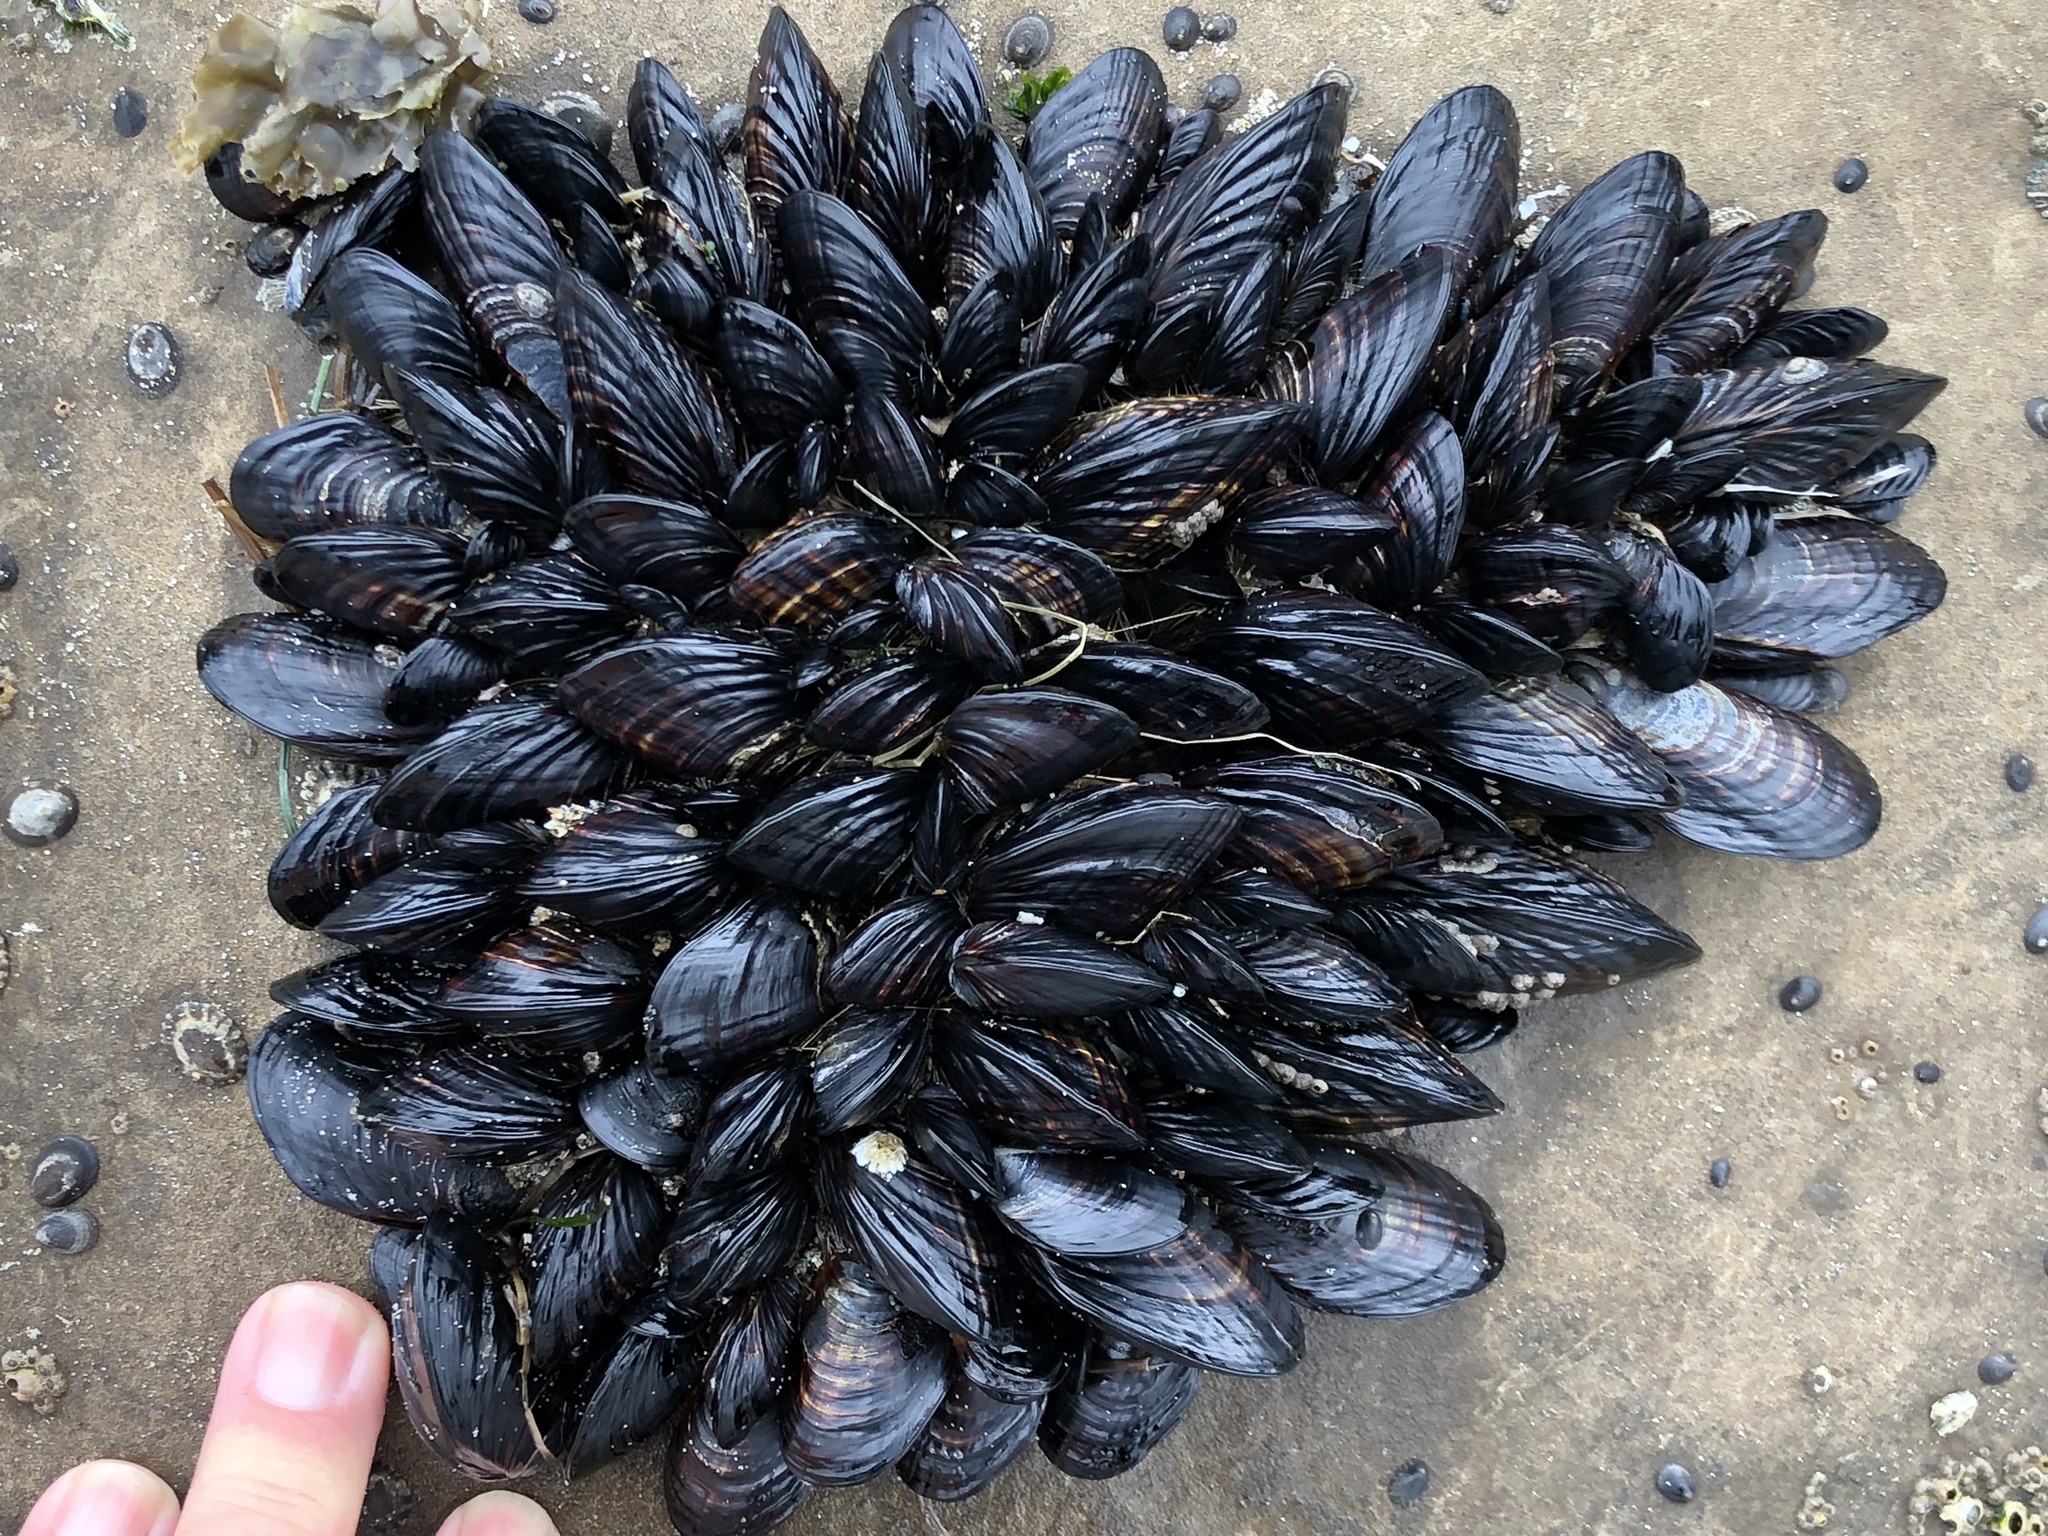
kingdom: Animalia
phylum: Mollusca
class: Bivalvia
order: Mytilida
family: Mytilidae
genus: Mytilus
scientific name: Mytilus californianus
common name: California mussel
